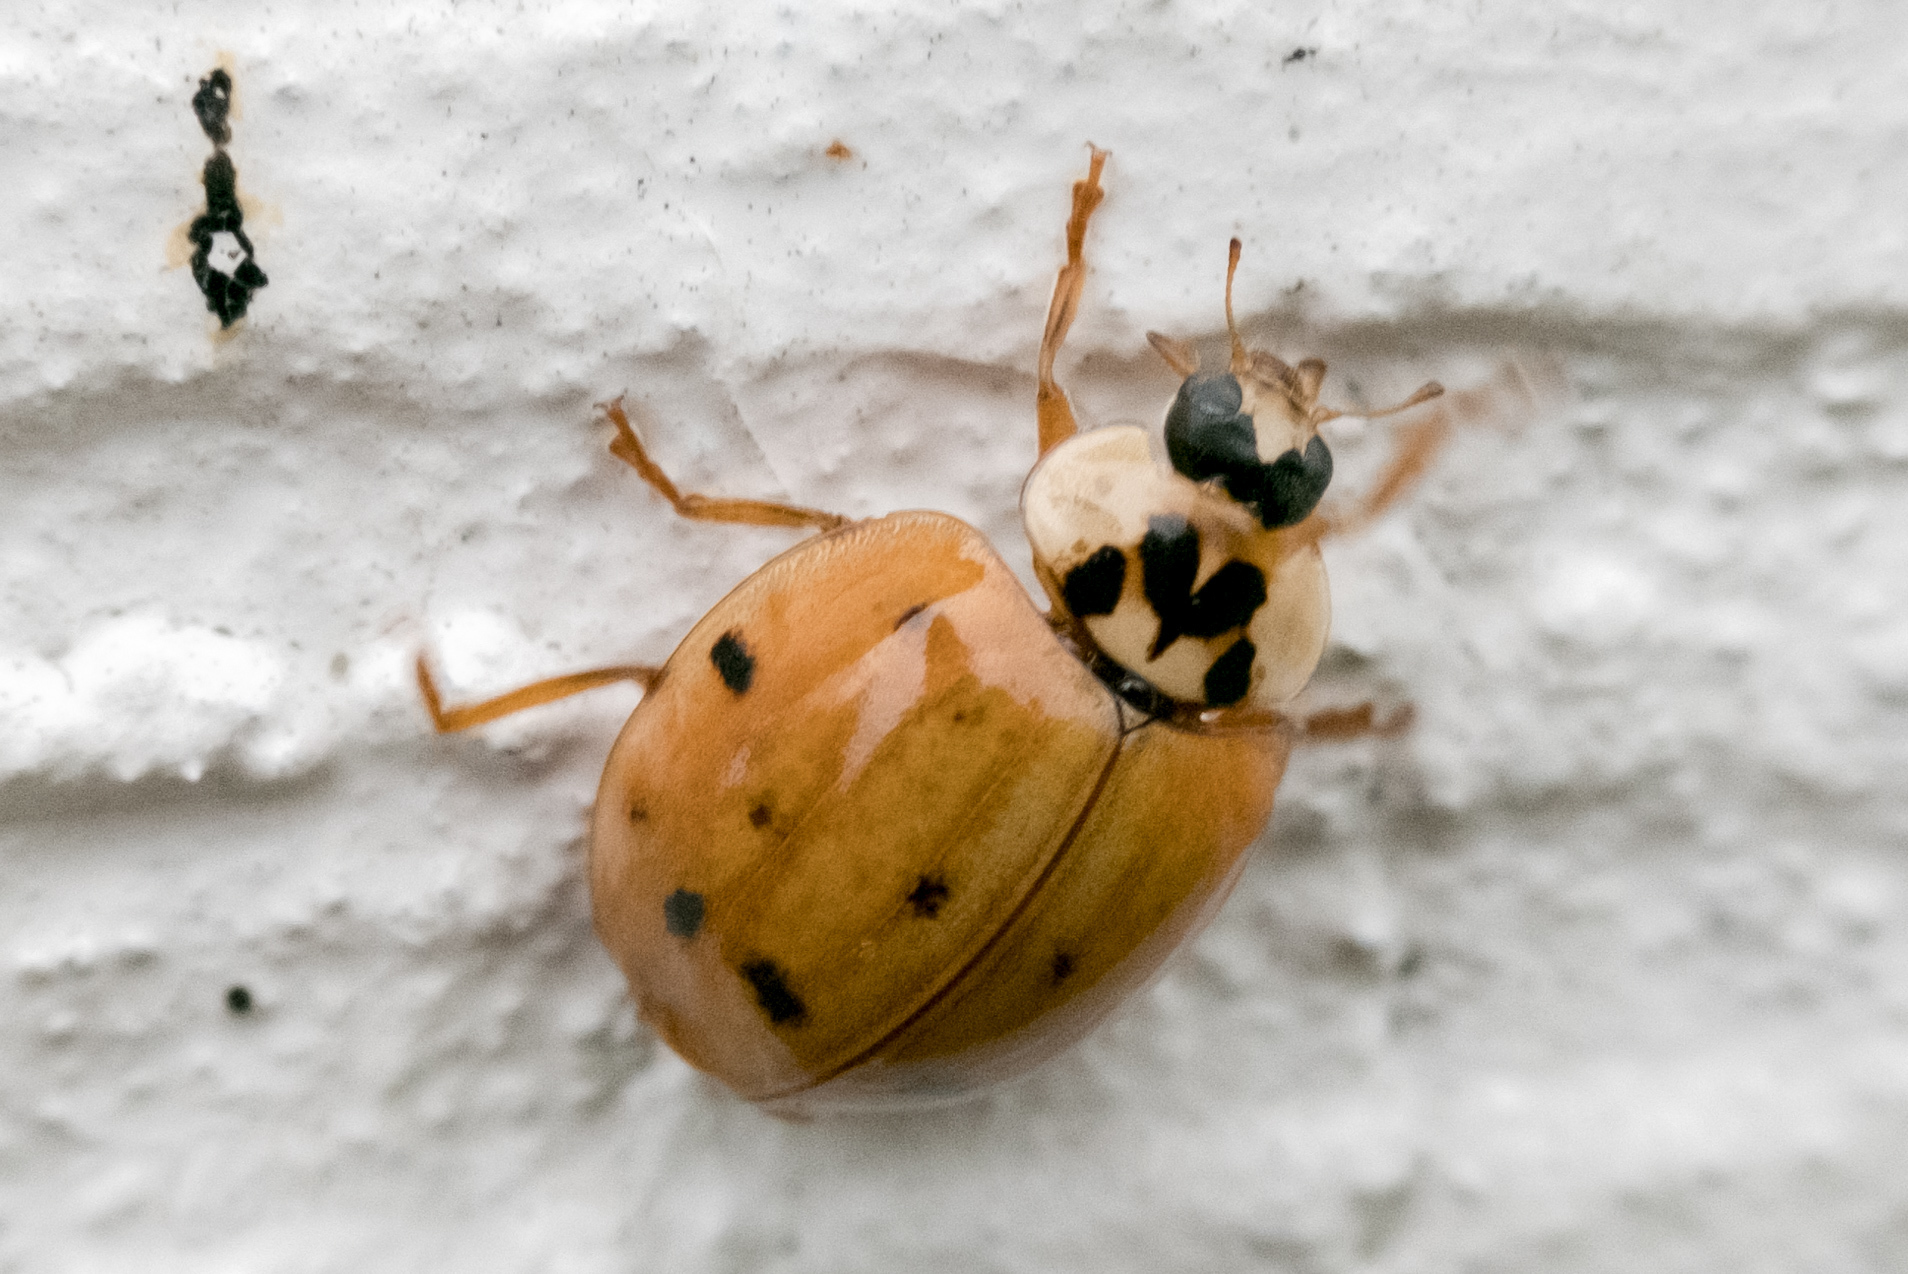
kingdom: Animalia
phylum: Arthropoda
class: Insecta
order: Coleoptera
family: Coccinellidae
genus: Harmonia
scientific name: Harmonia axyridis
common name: Harlequin ladybird
